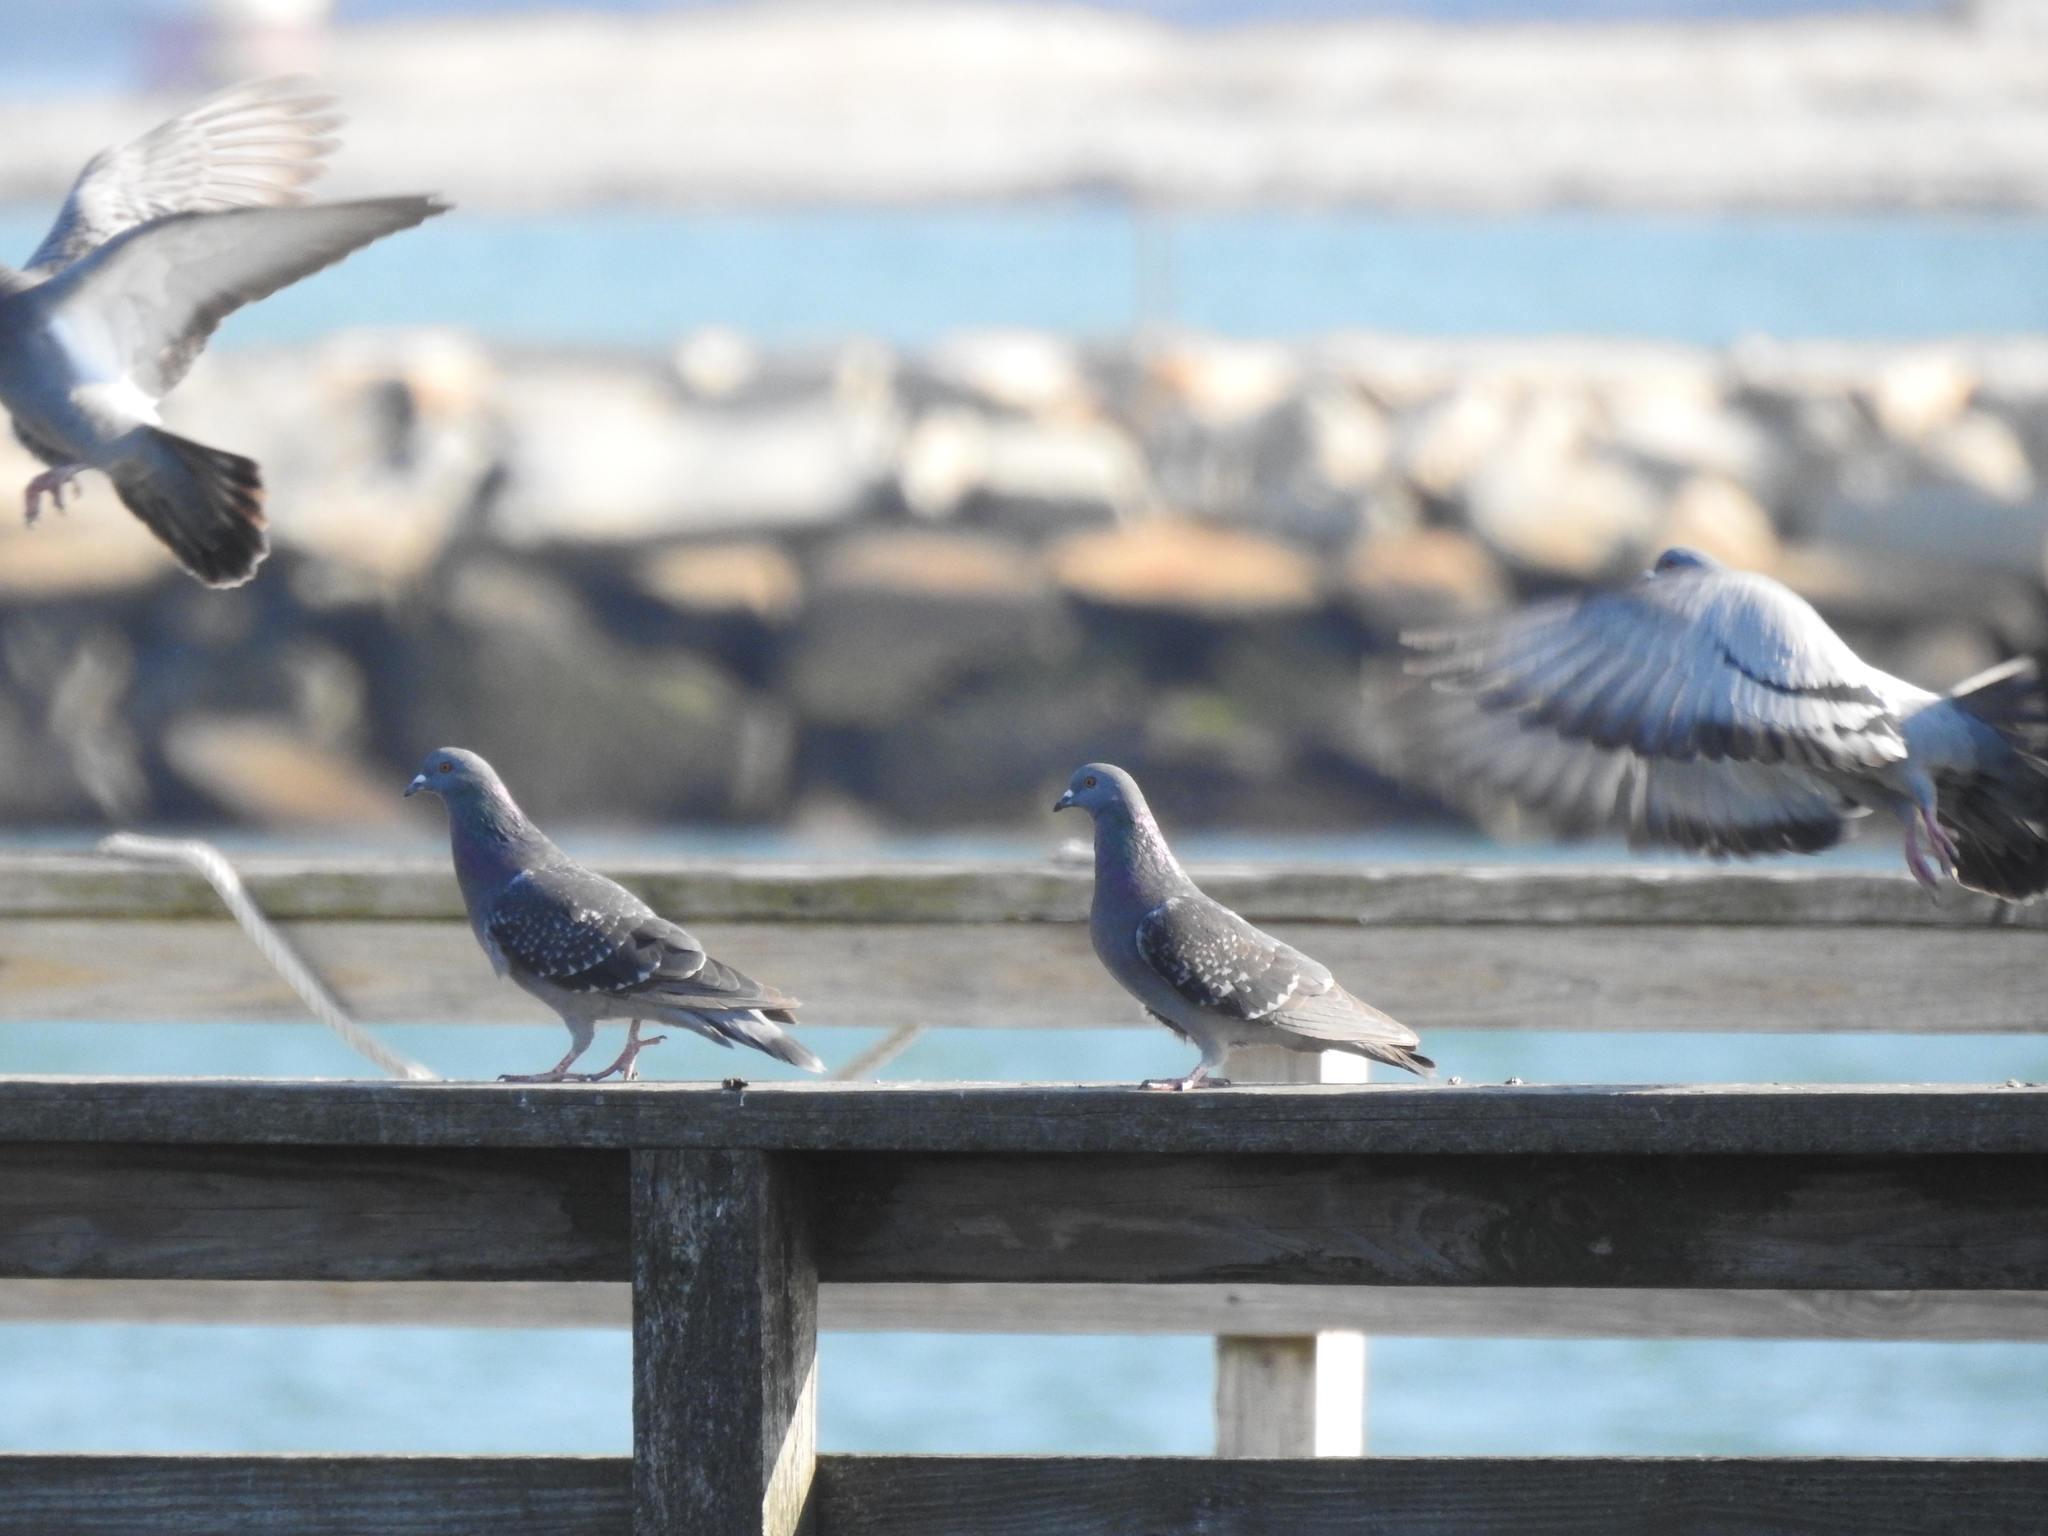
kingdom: Animalia
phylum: Chordata
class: Aves
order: Columbiformes
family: Columbidae
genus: Columba
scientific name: Columba livia
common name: Rock pigeon
